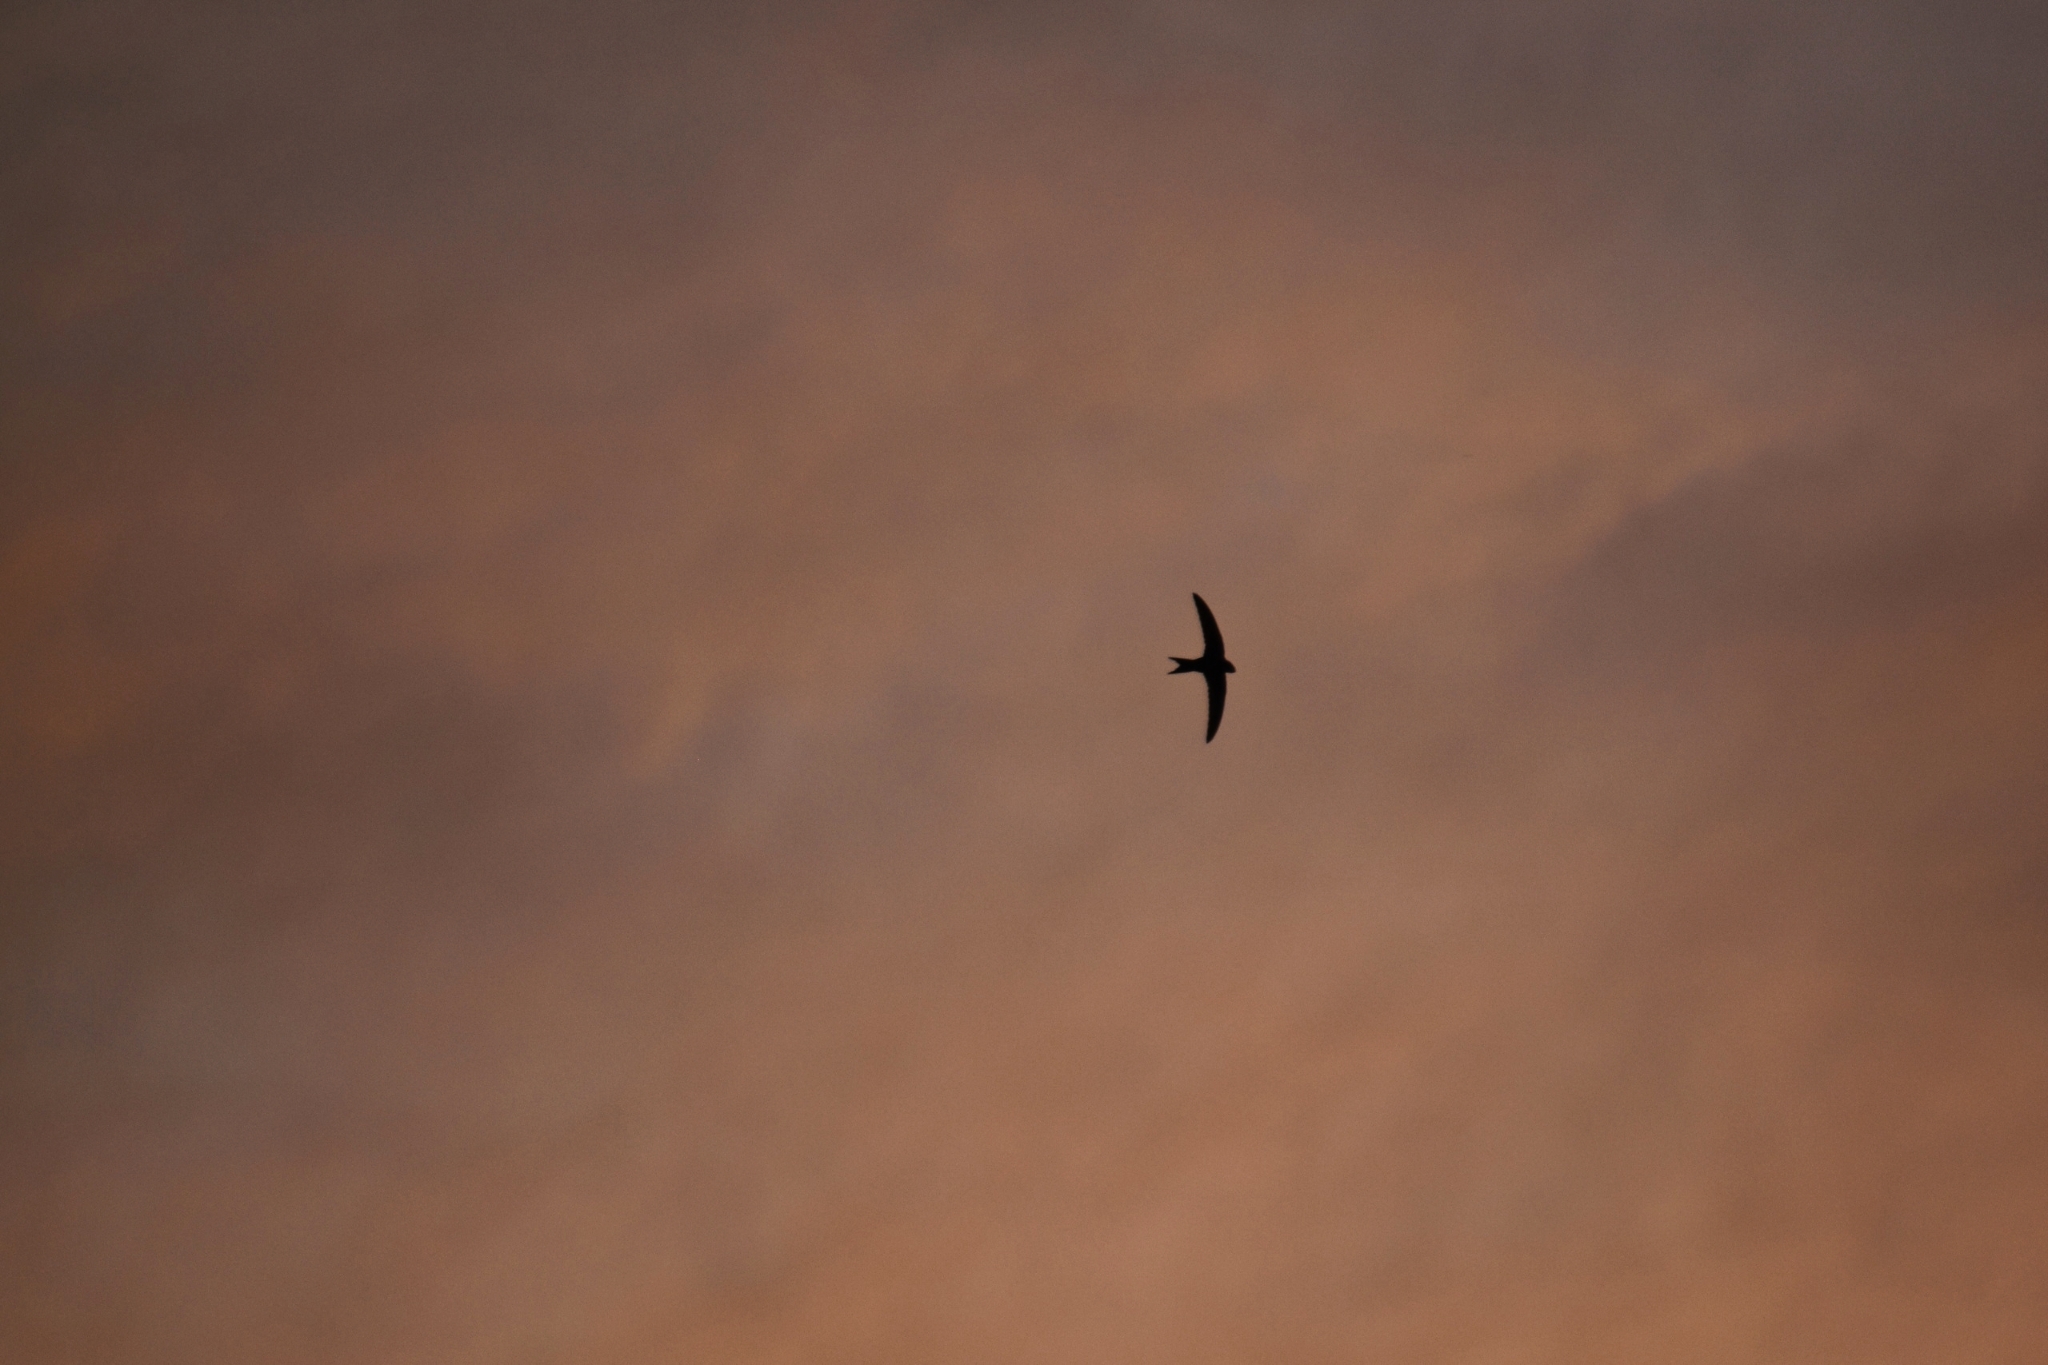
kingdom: Animalia
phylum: Chordata
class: Aves
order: Apodiformes
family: Apodidae
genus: Apus
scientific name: Apus apus
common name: Common swift
